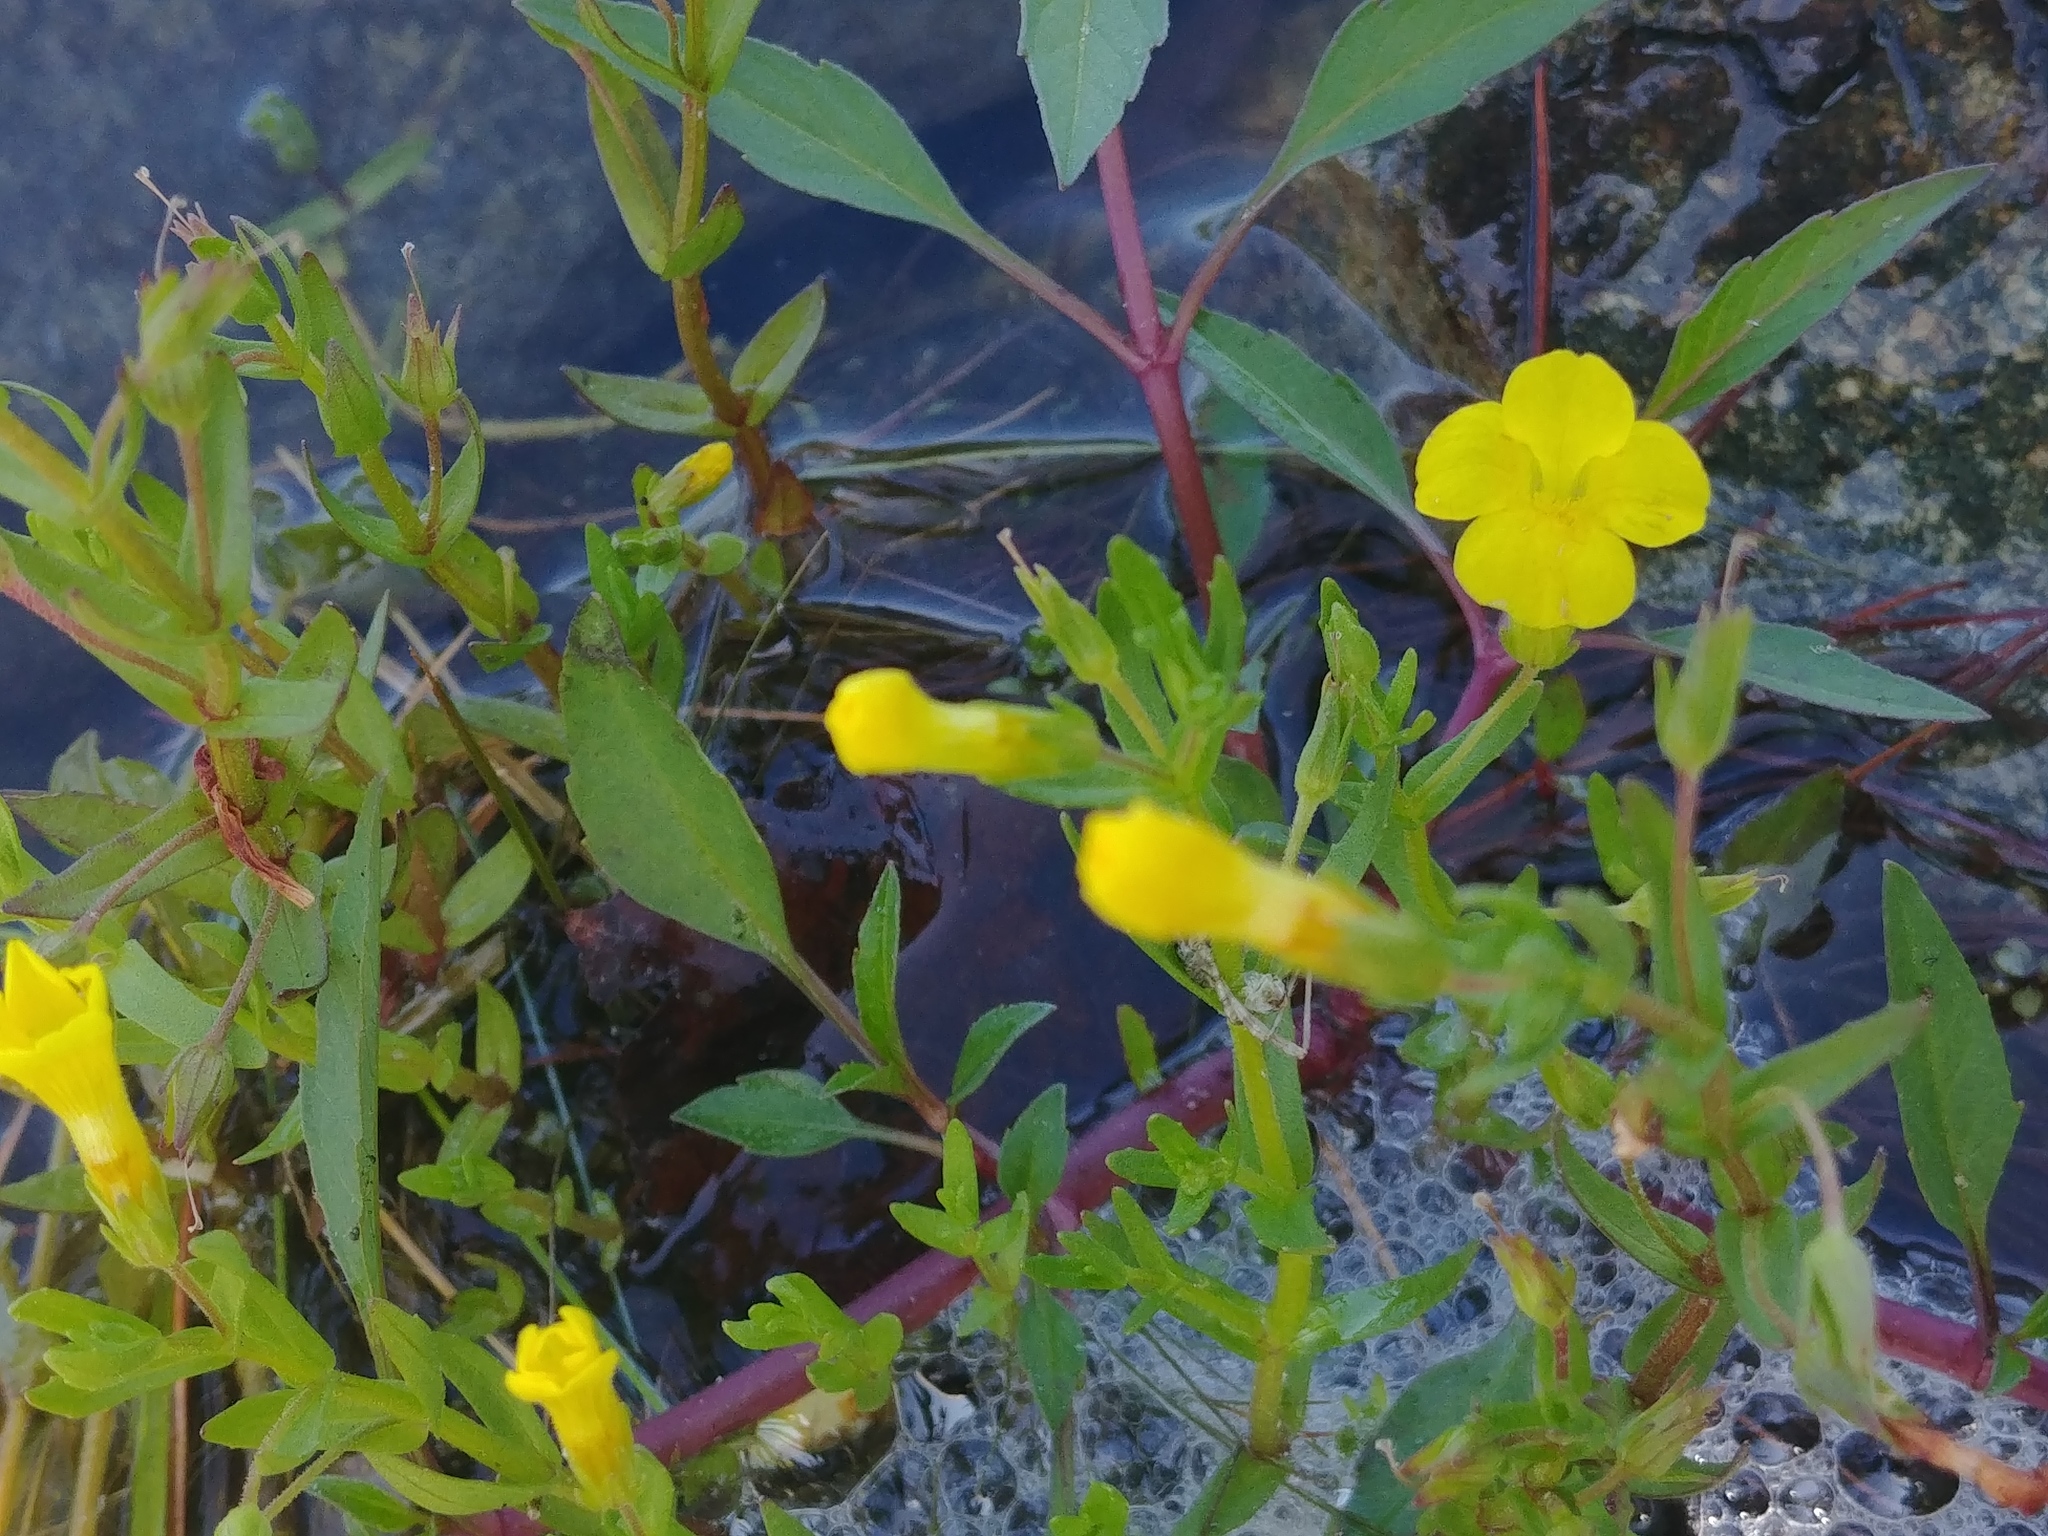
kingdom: Plantae
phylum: Tracheophyta
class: Magnoliopsida
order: Lamiales
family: Plantaginaceae
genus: Gratiola
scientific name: Gratiola lutea
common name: Golden hedge-hyssop
